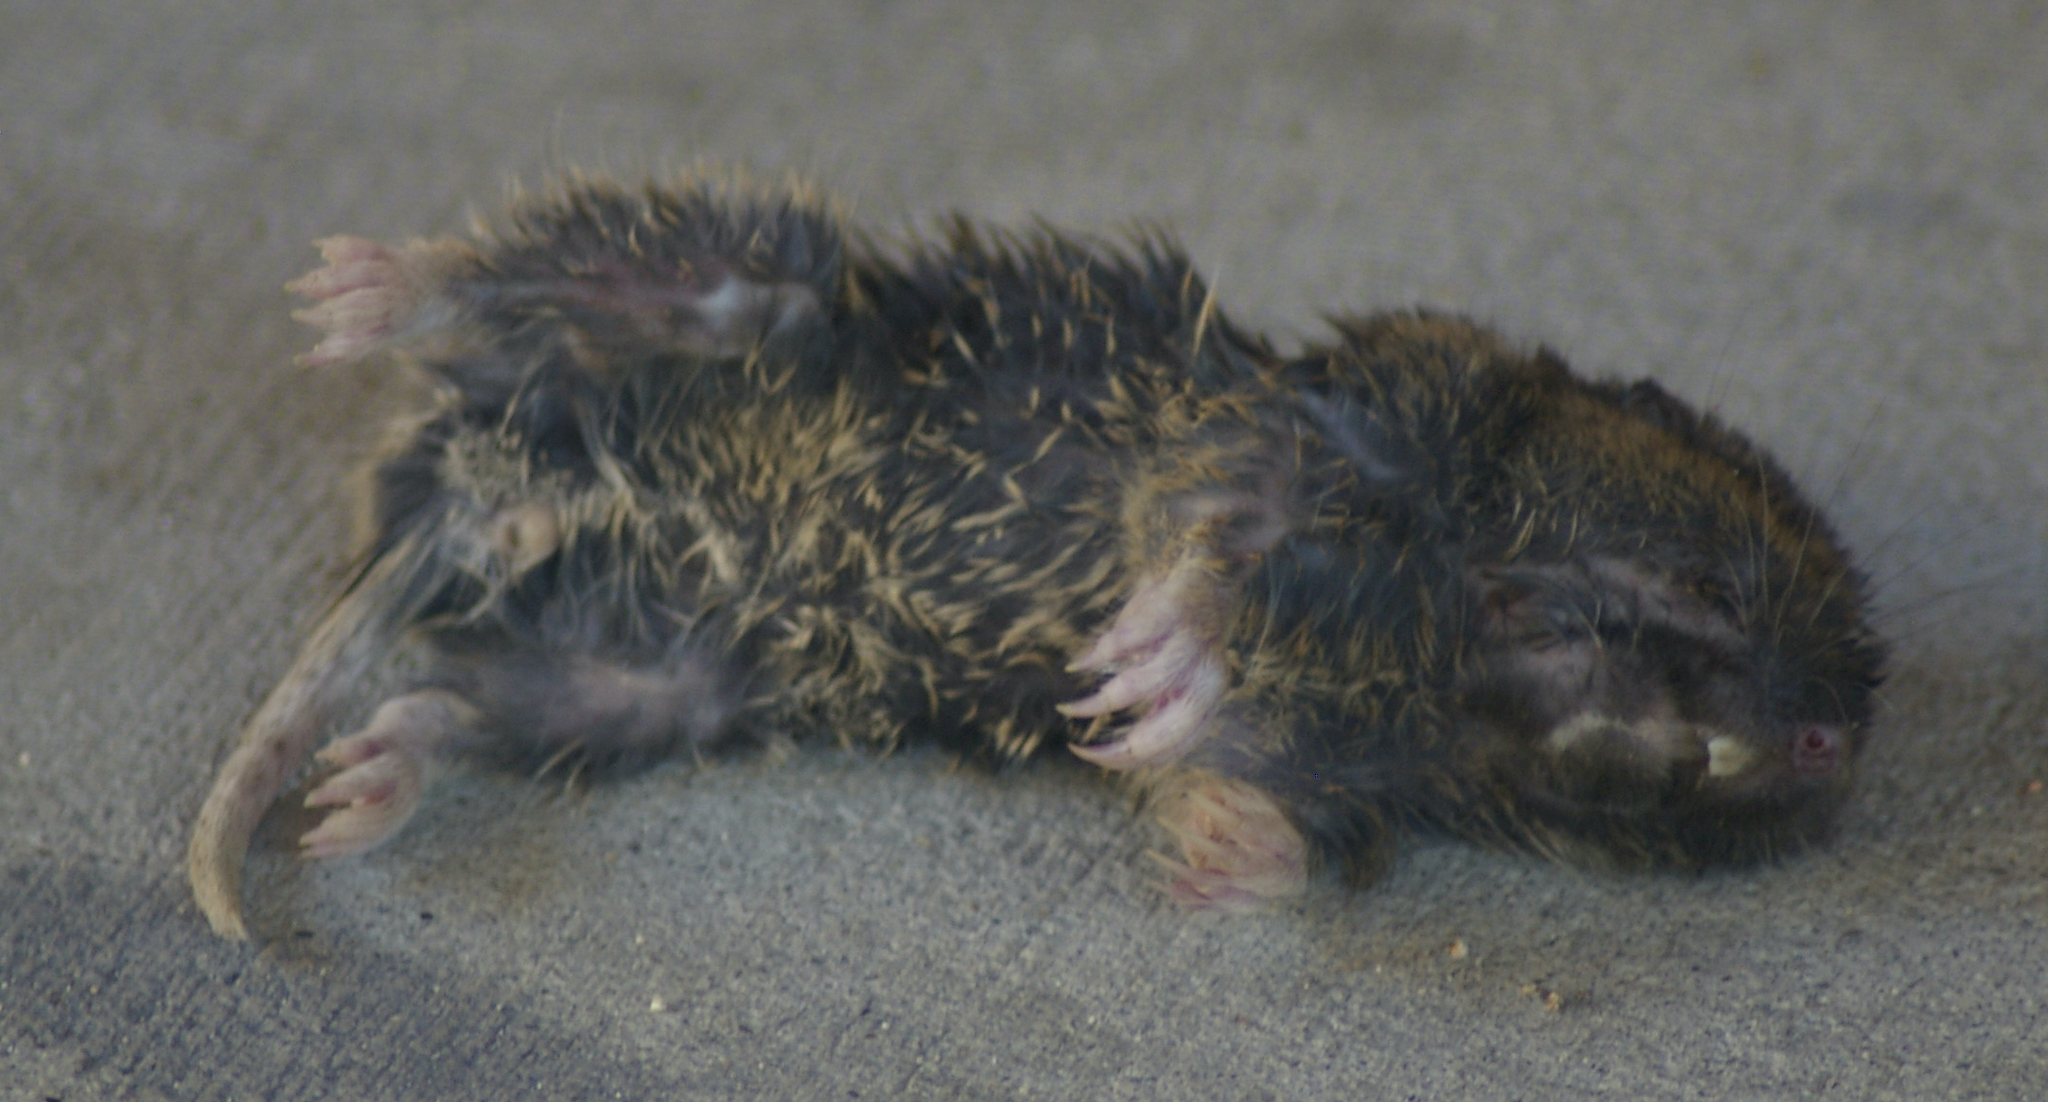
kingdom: Animalia
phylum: Chordata
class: Mammalia
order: Rodentia
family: Geomyidae
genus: Thomomys
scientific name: Thomomys bottae
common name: Botta's pocket gopher
